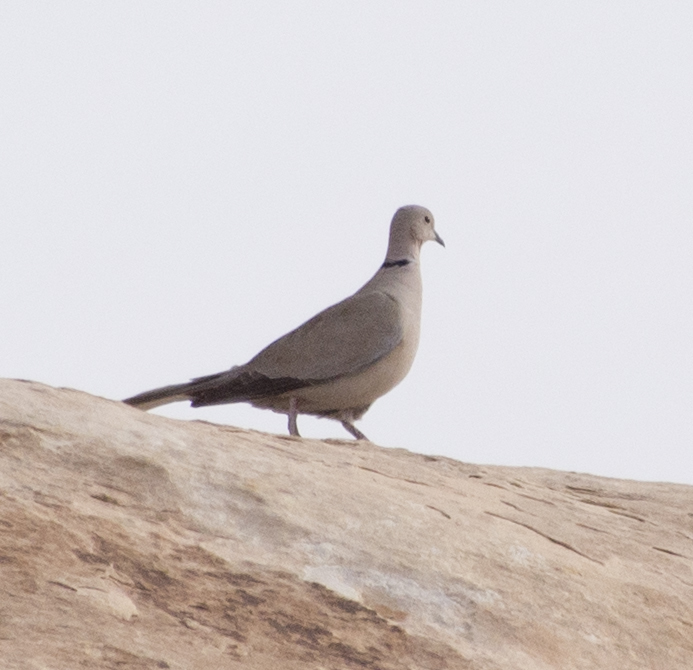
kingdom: Animalia
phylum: Chordata
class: Aves
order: Columbiformes
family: Columbidae
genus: Streptopelia
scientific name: Streptopelia decaocto
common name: Eurasian collared dove
